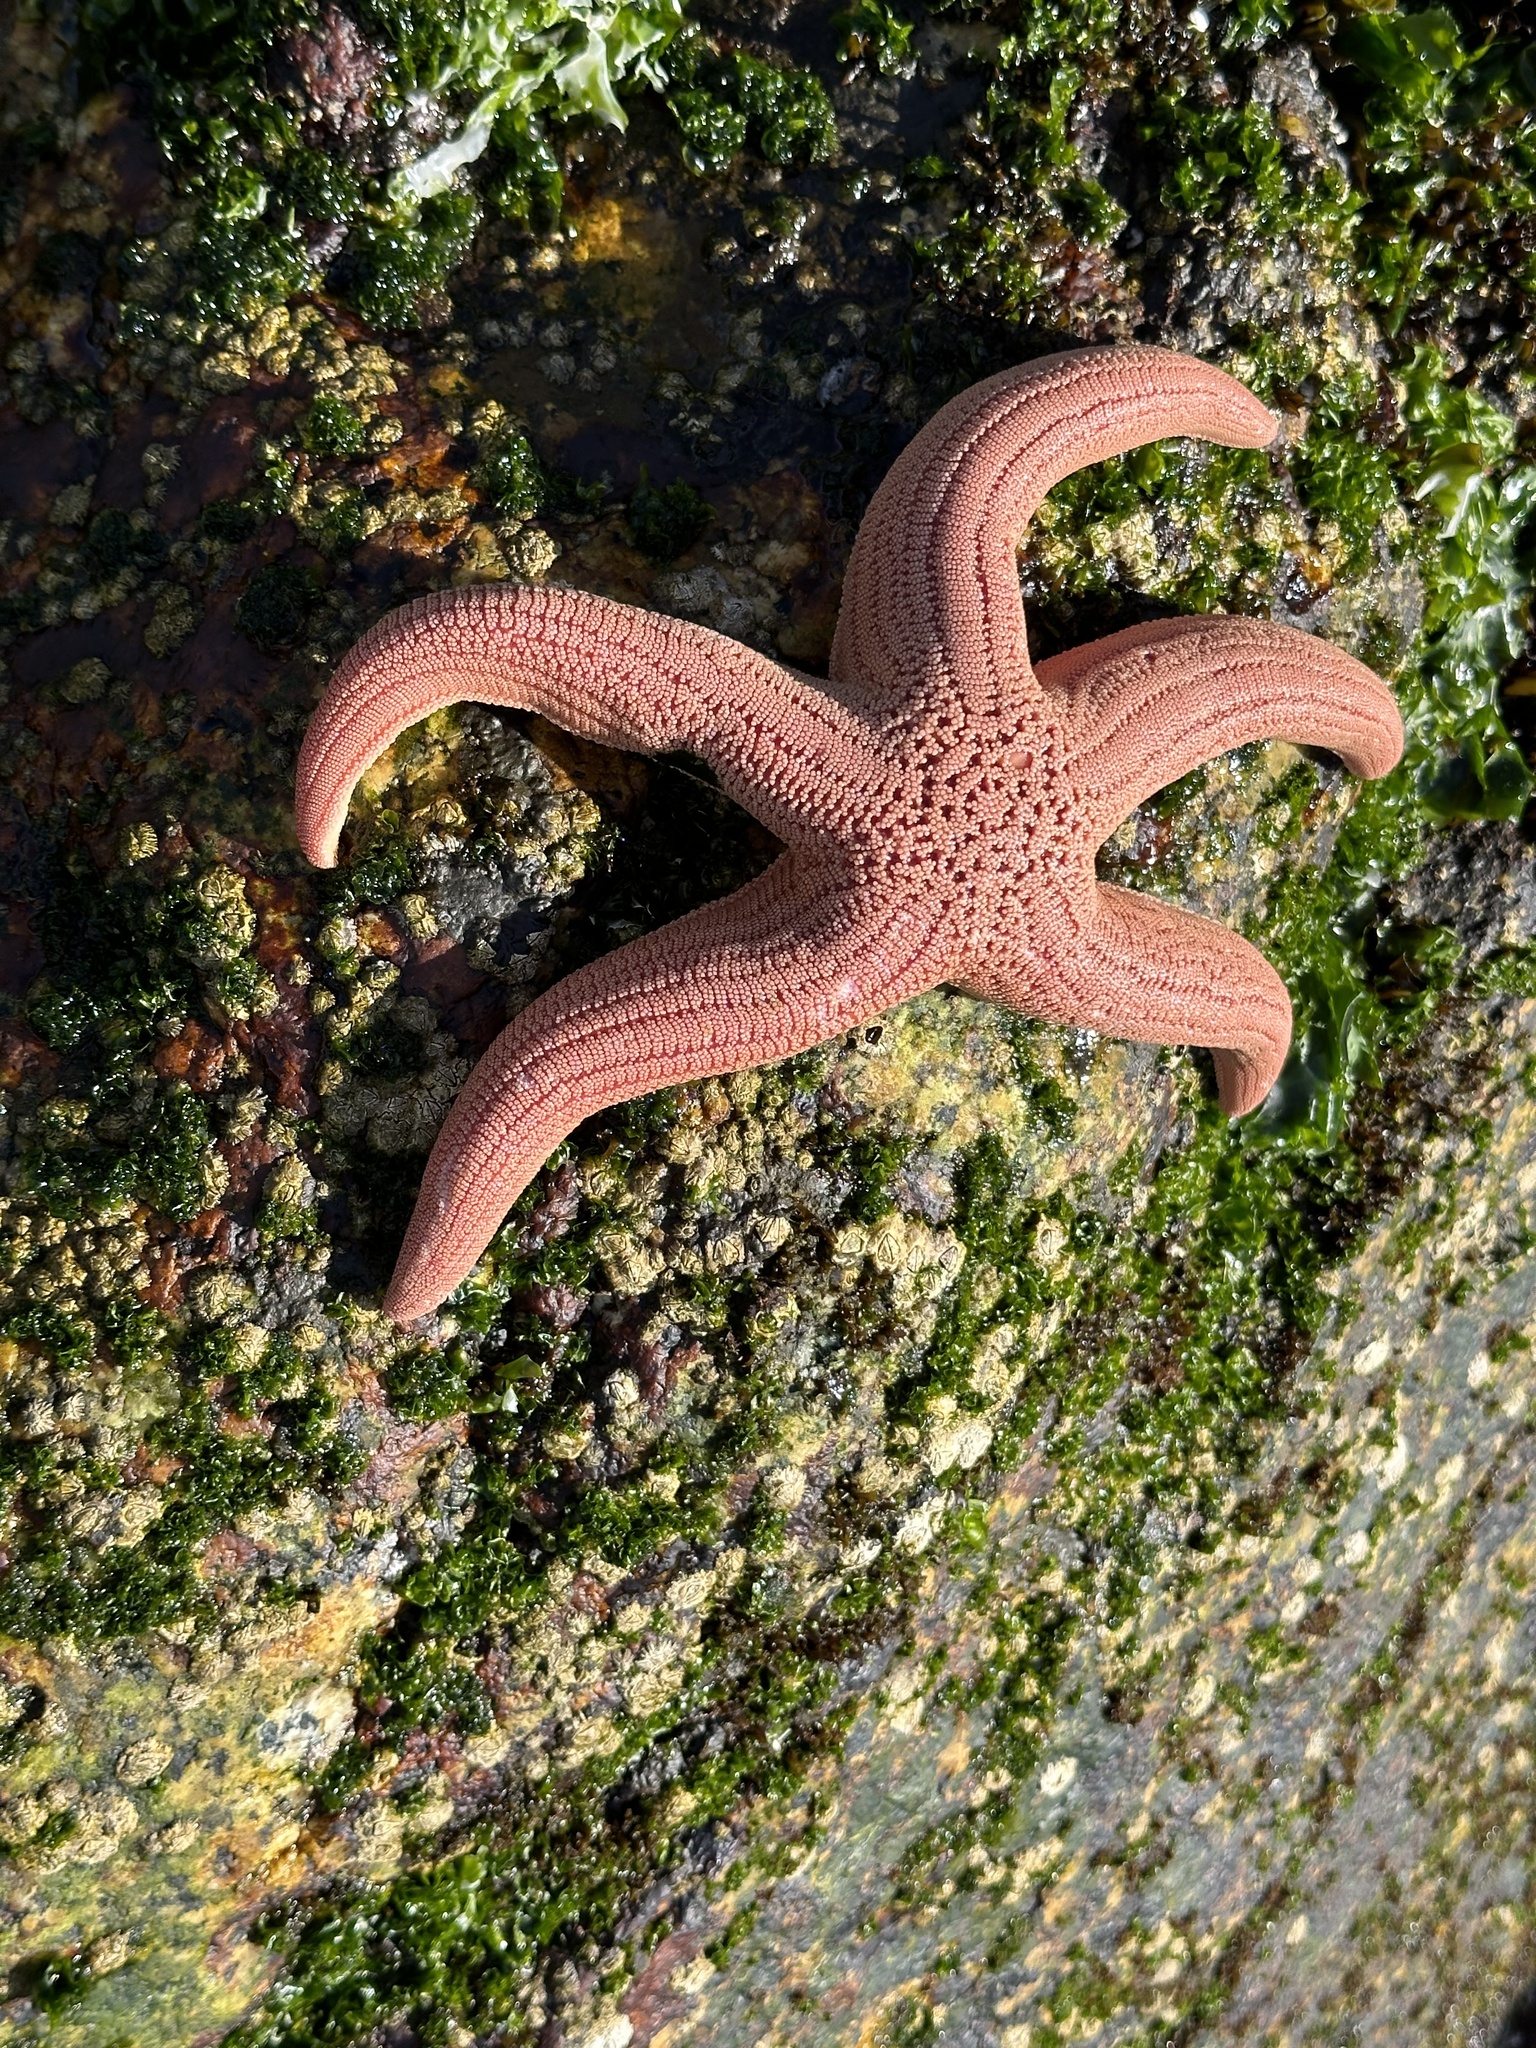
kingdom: Animalia
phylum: Echinodermata
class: Asteroidea
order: Forcipulatida
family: Stichasteridae
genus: Stichaster
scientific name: Stichaster striatus
